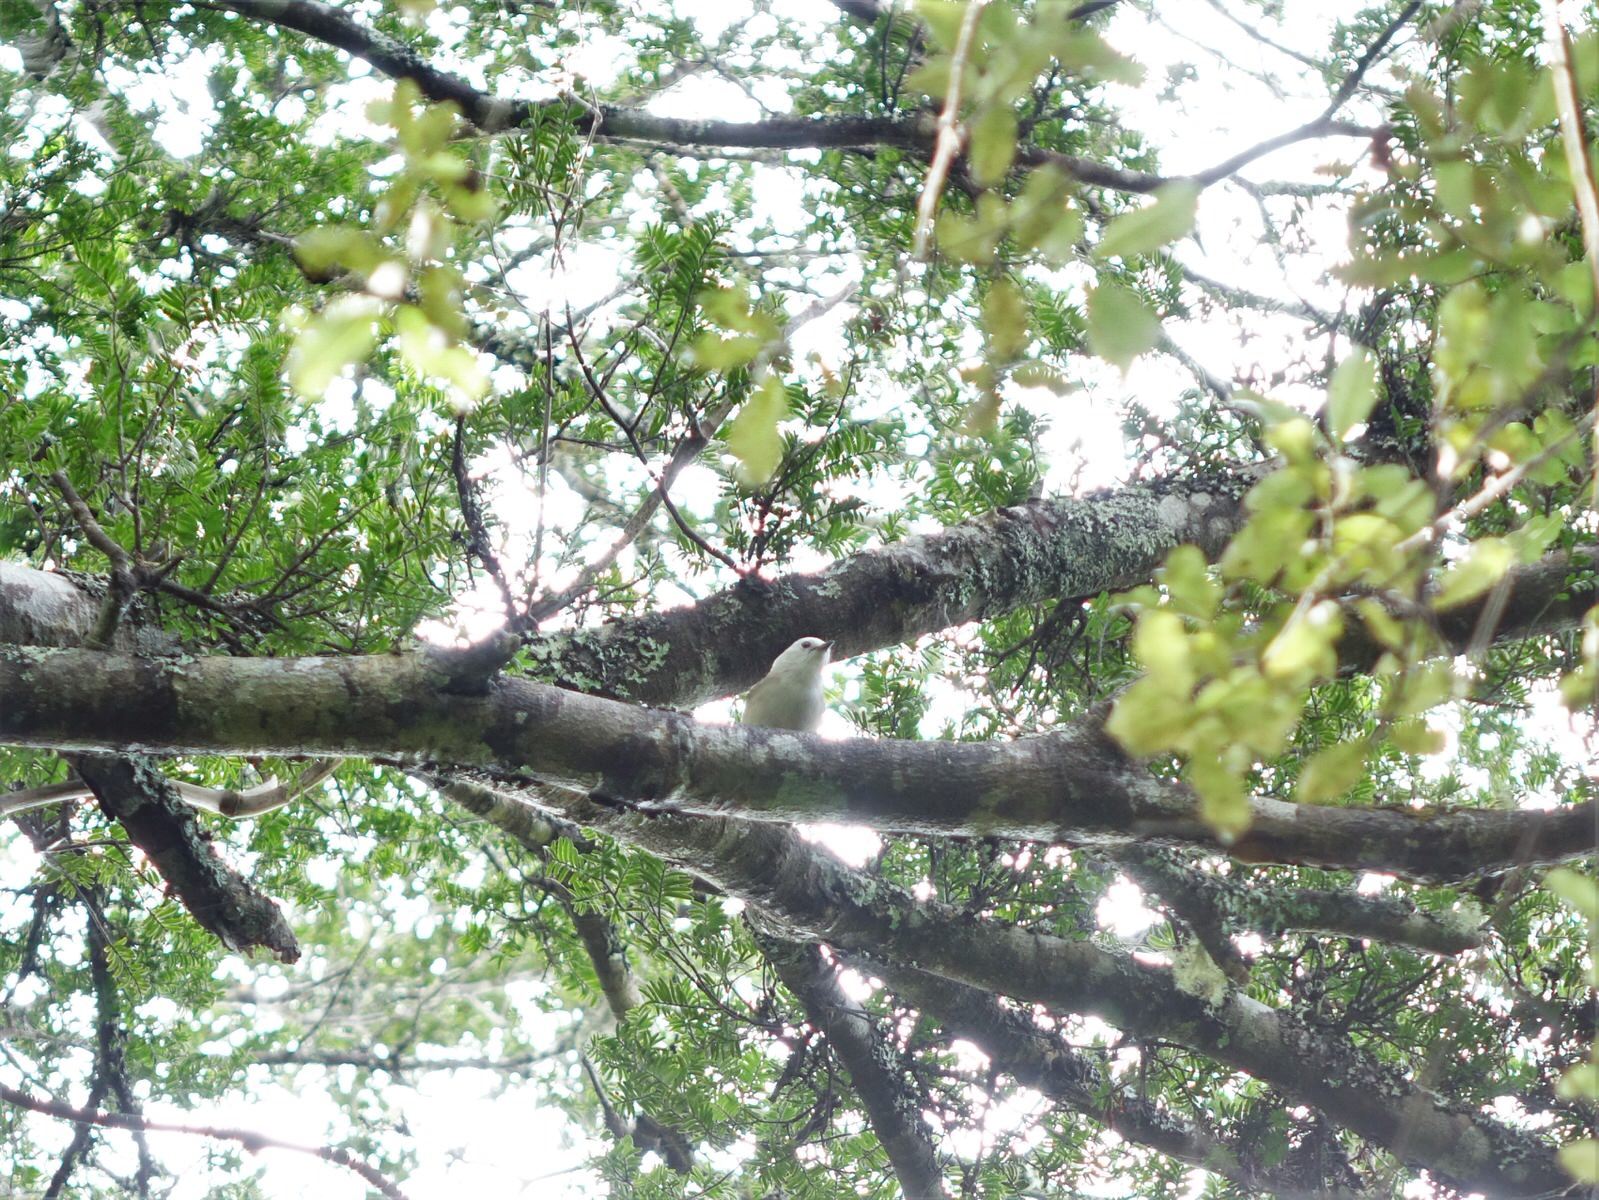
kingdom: Animalia
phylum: Chordata
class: Aves
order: Passeriformes
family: Acanthizidae
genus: Mohoua
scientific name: Mohoua albicilla
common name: Whitehead
